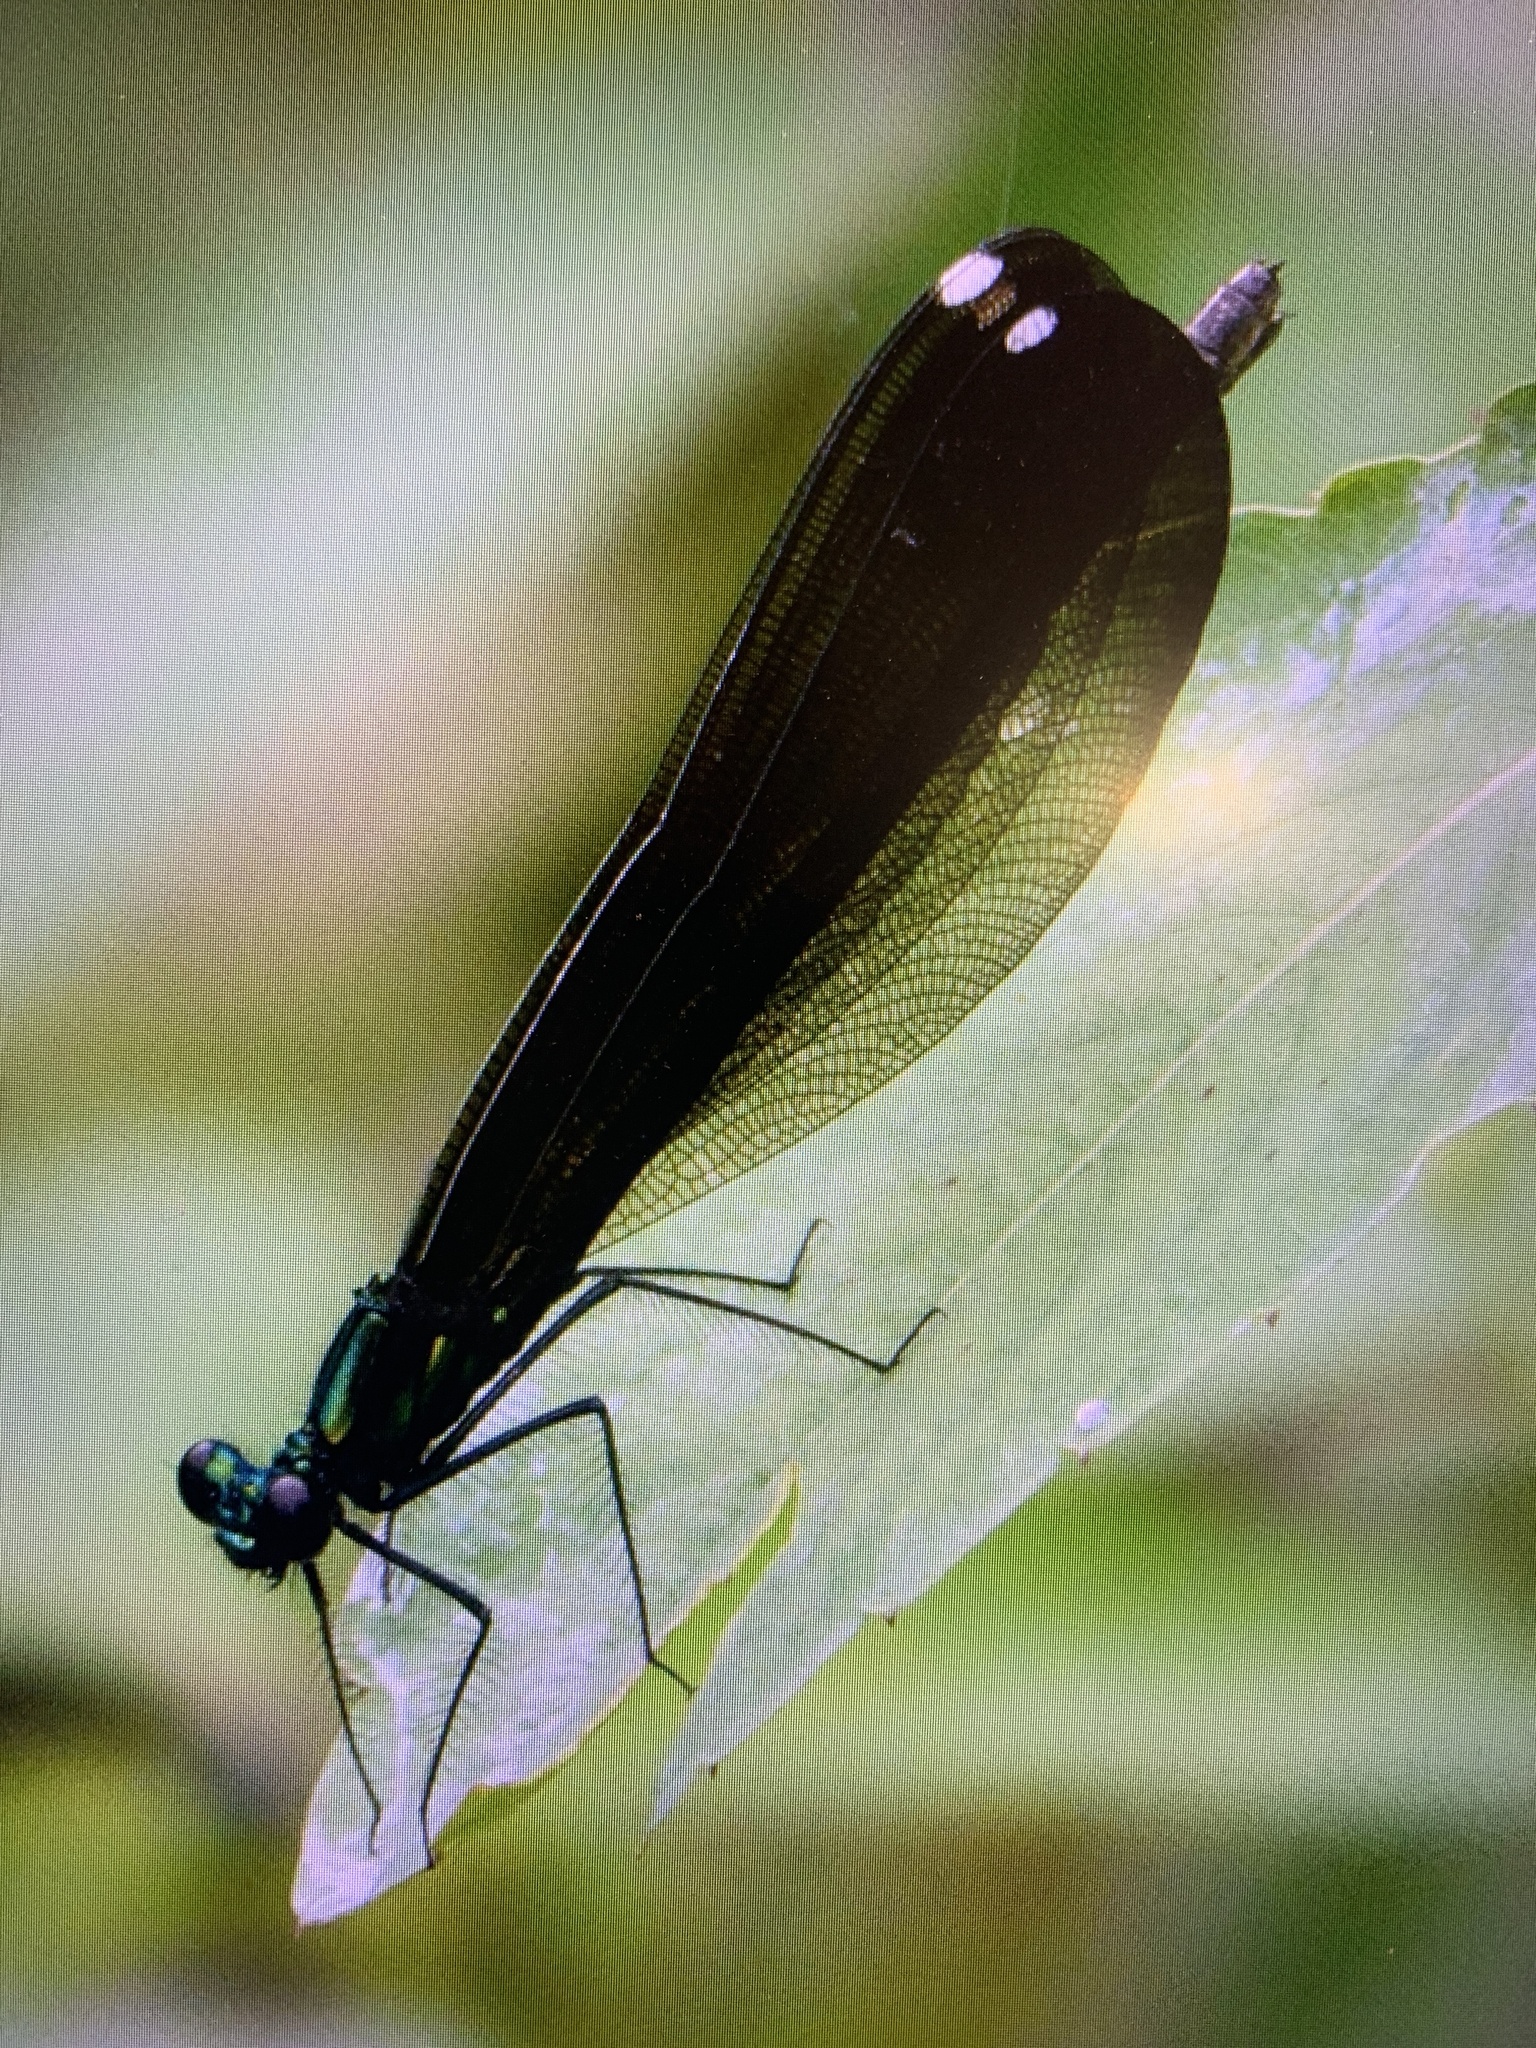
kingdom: Animalia
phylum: Arthropoda
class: Insecta
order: Odonata
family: Calopterygidae
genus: Calopteryx
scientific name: Calopteryx maculata
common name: Ebony jewelwing
